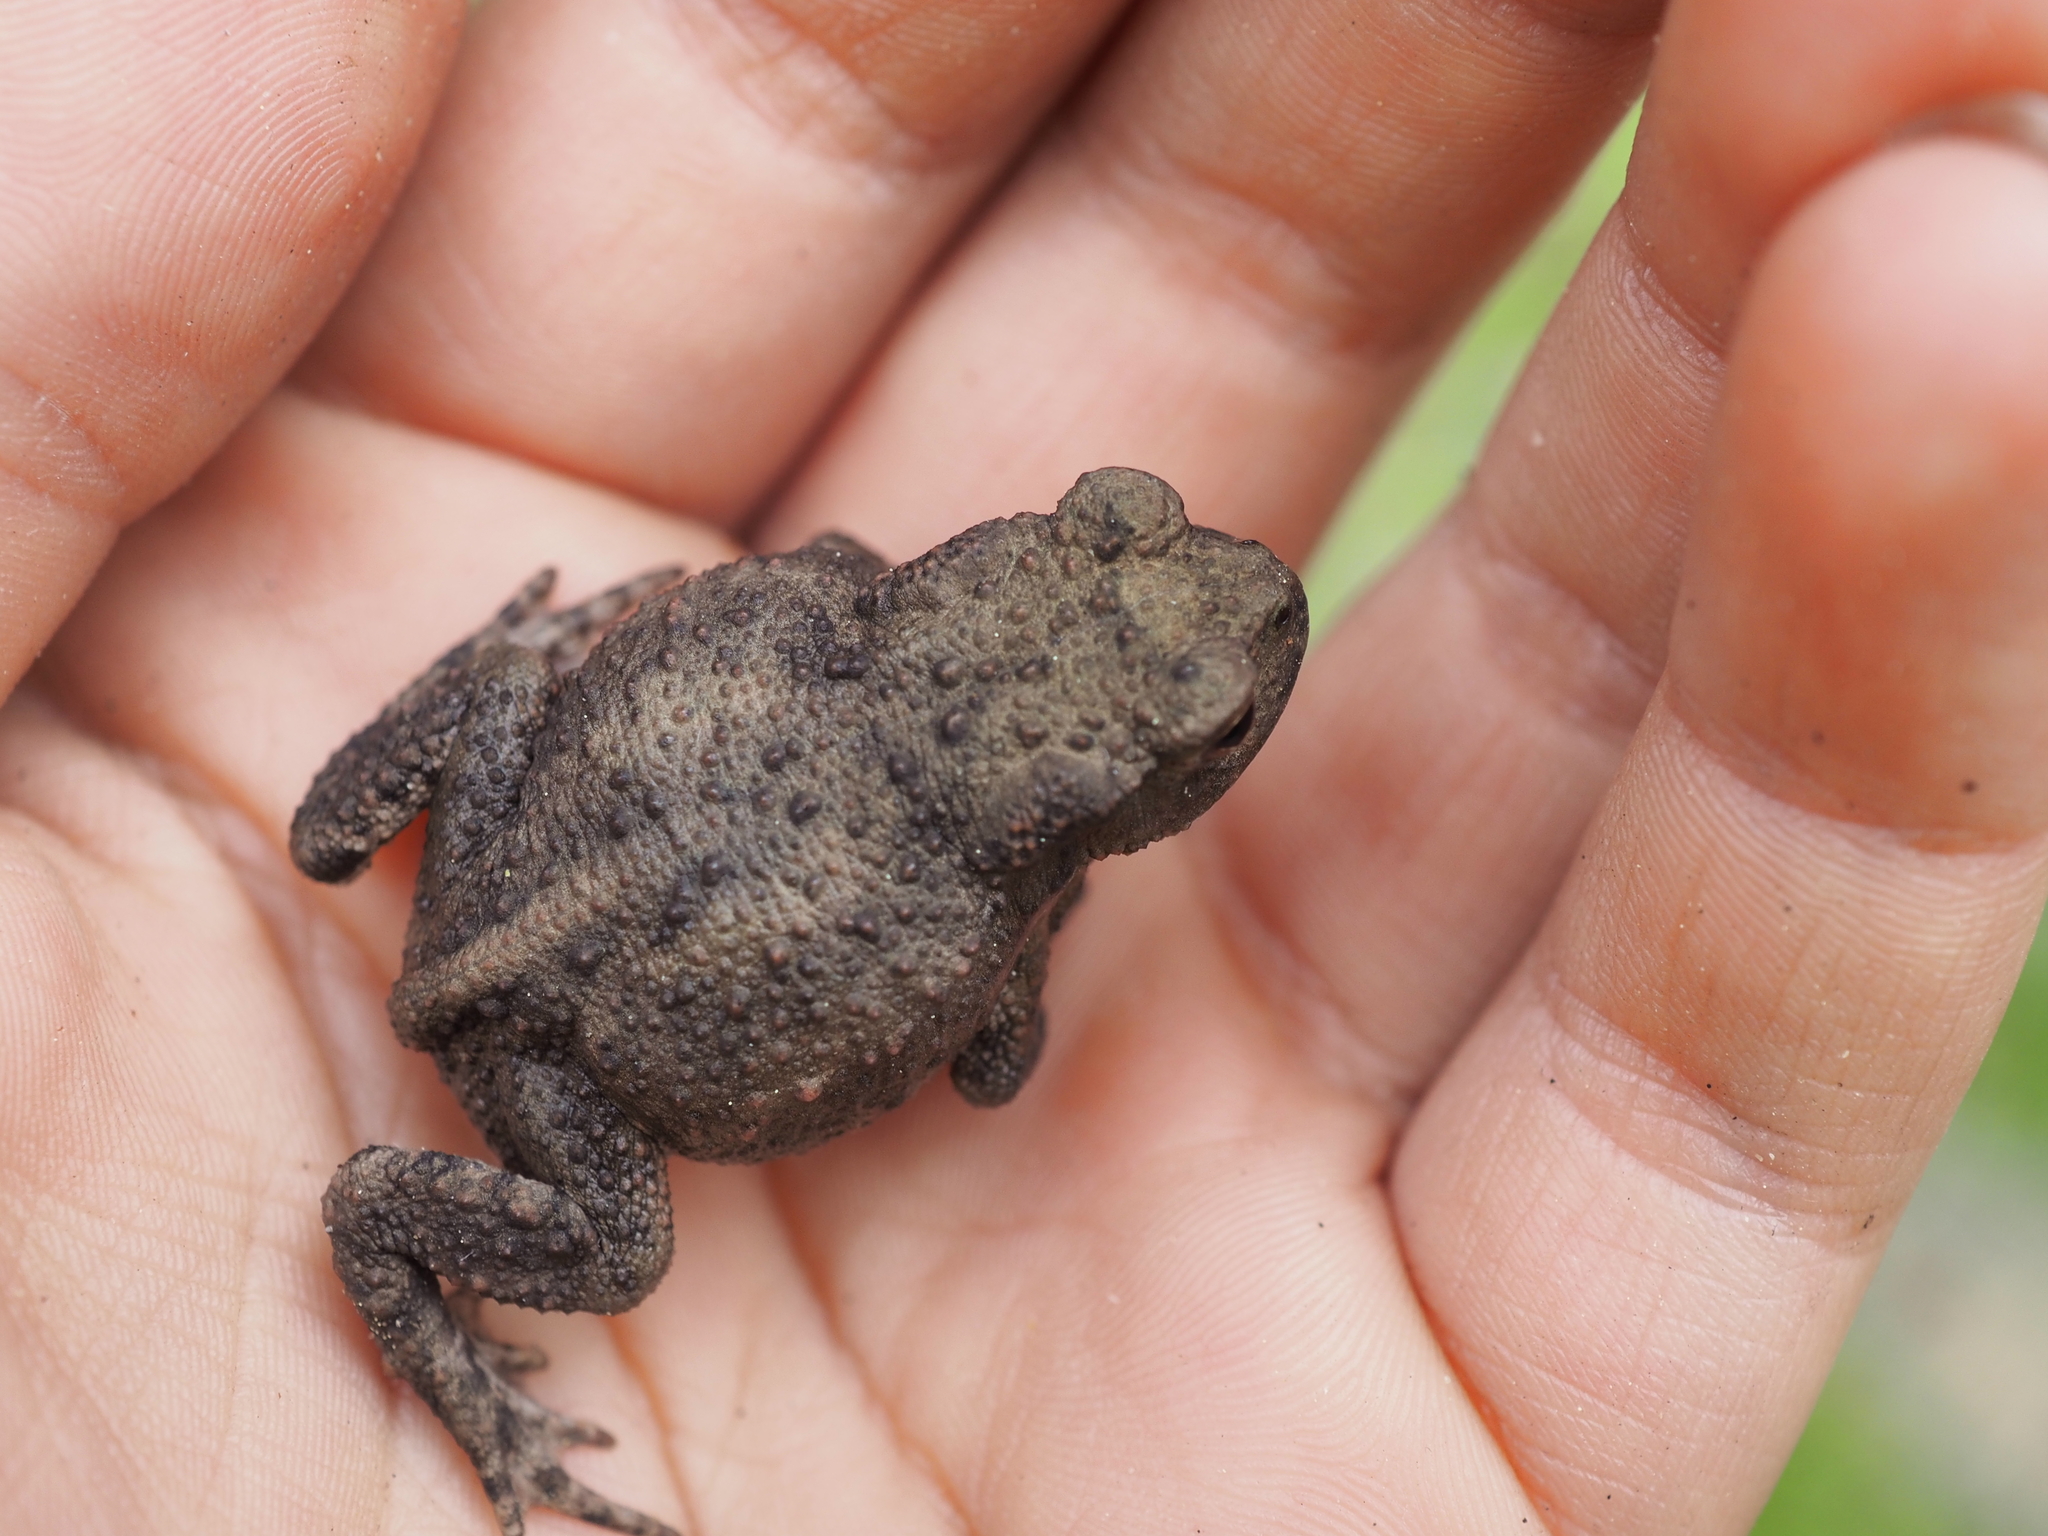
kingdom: Animalia
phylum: Chordata
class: Amphibia
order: Anura
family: Bufonidae
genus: Bufo
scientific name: Bufo bufo
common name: Common toad
